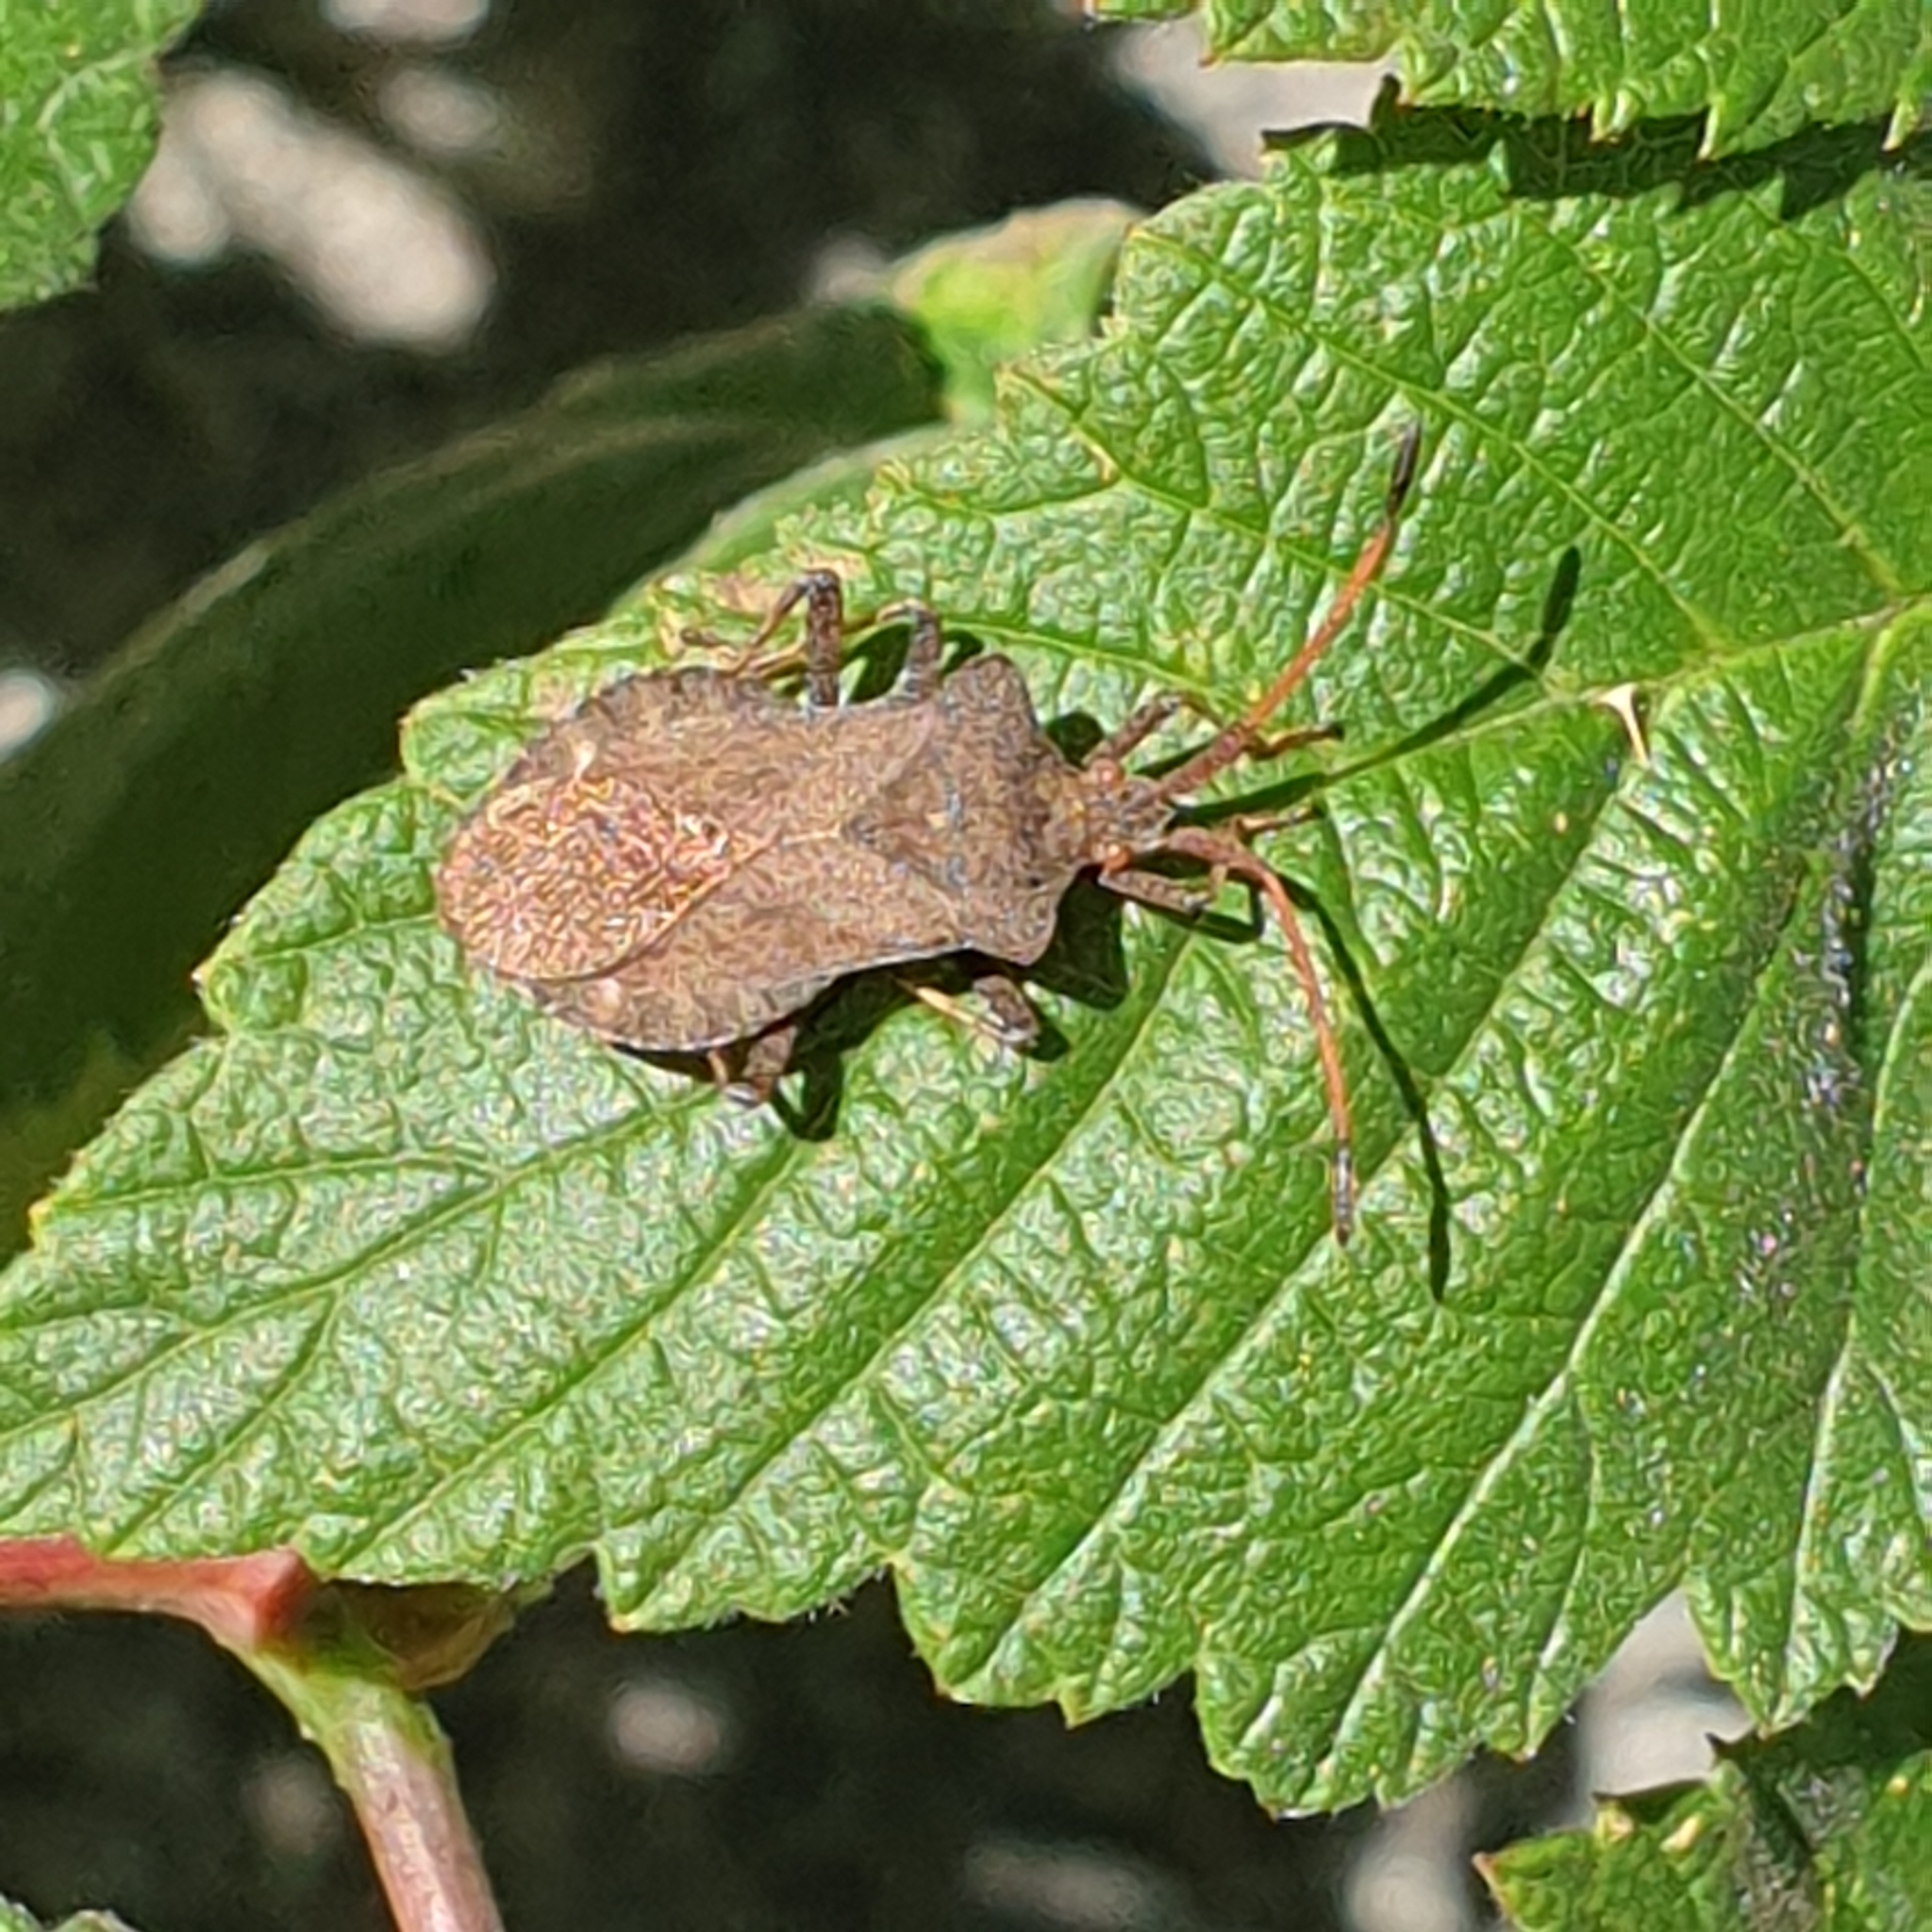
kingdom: Animalia
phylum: Arthropoda
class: Insecta
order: Hemiptera
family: Coreidae
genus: Coreus
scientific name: Coreus marginatus
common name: Dock bug
